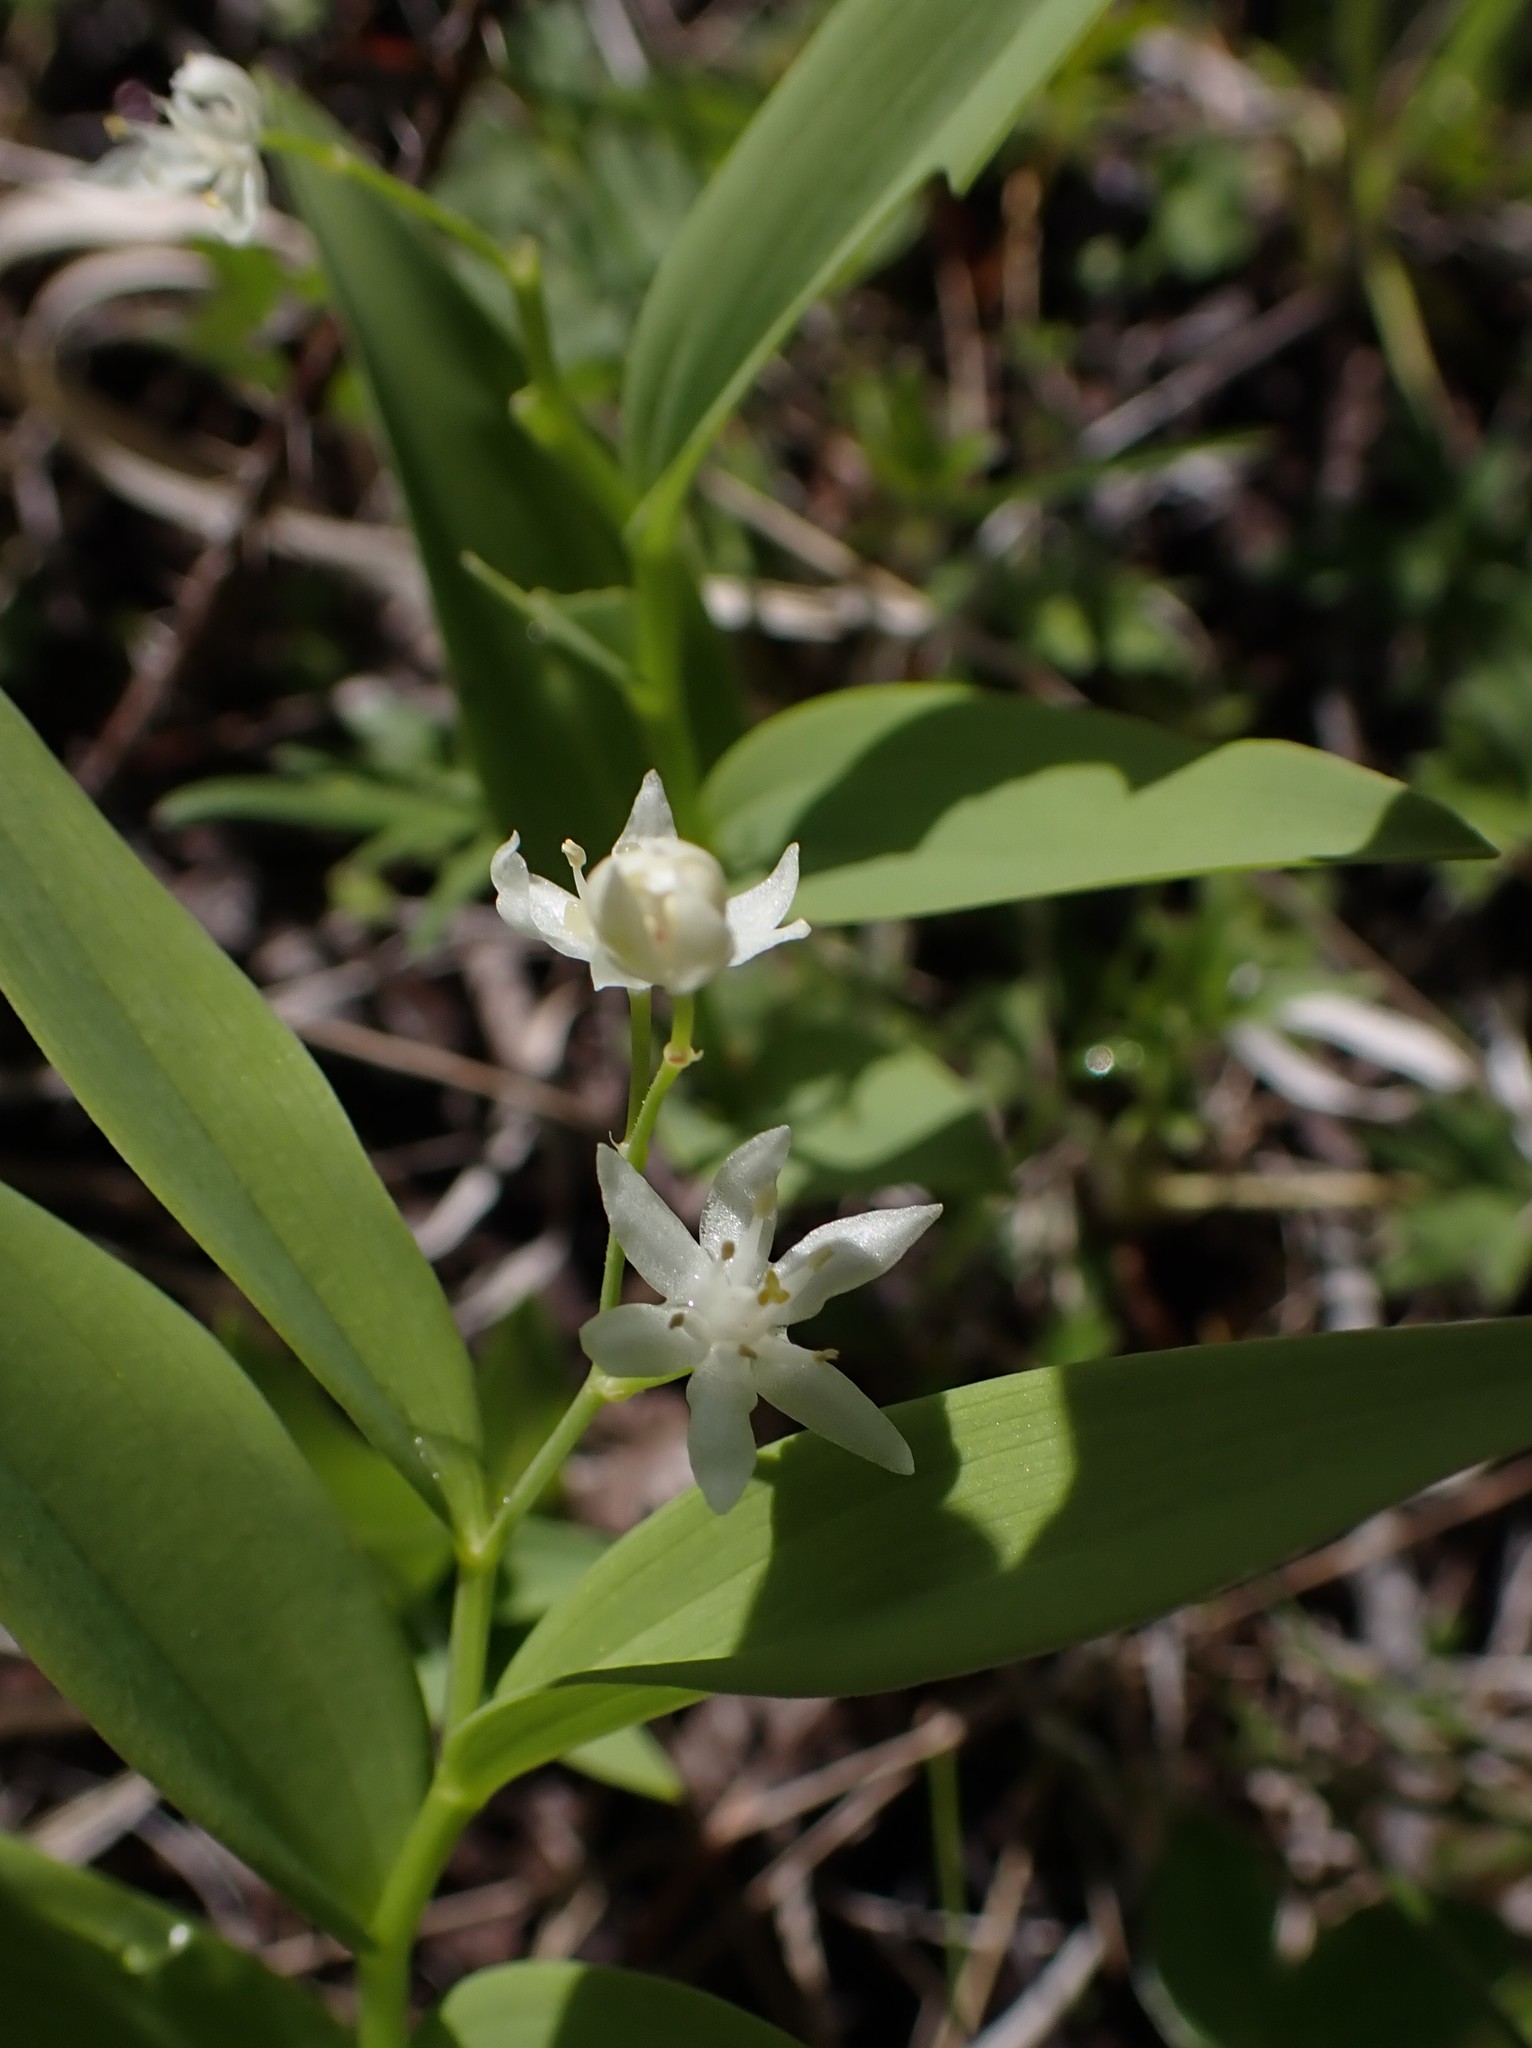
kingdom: Plantae
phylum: Tracheophyta
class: Liliopsida
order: Asparagales
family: Asparagaceae
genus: Maianthemum
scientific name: Maianthemum stellatum
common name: Little false solomon's seal
